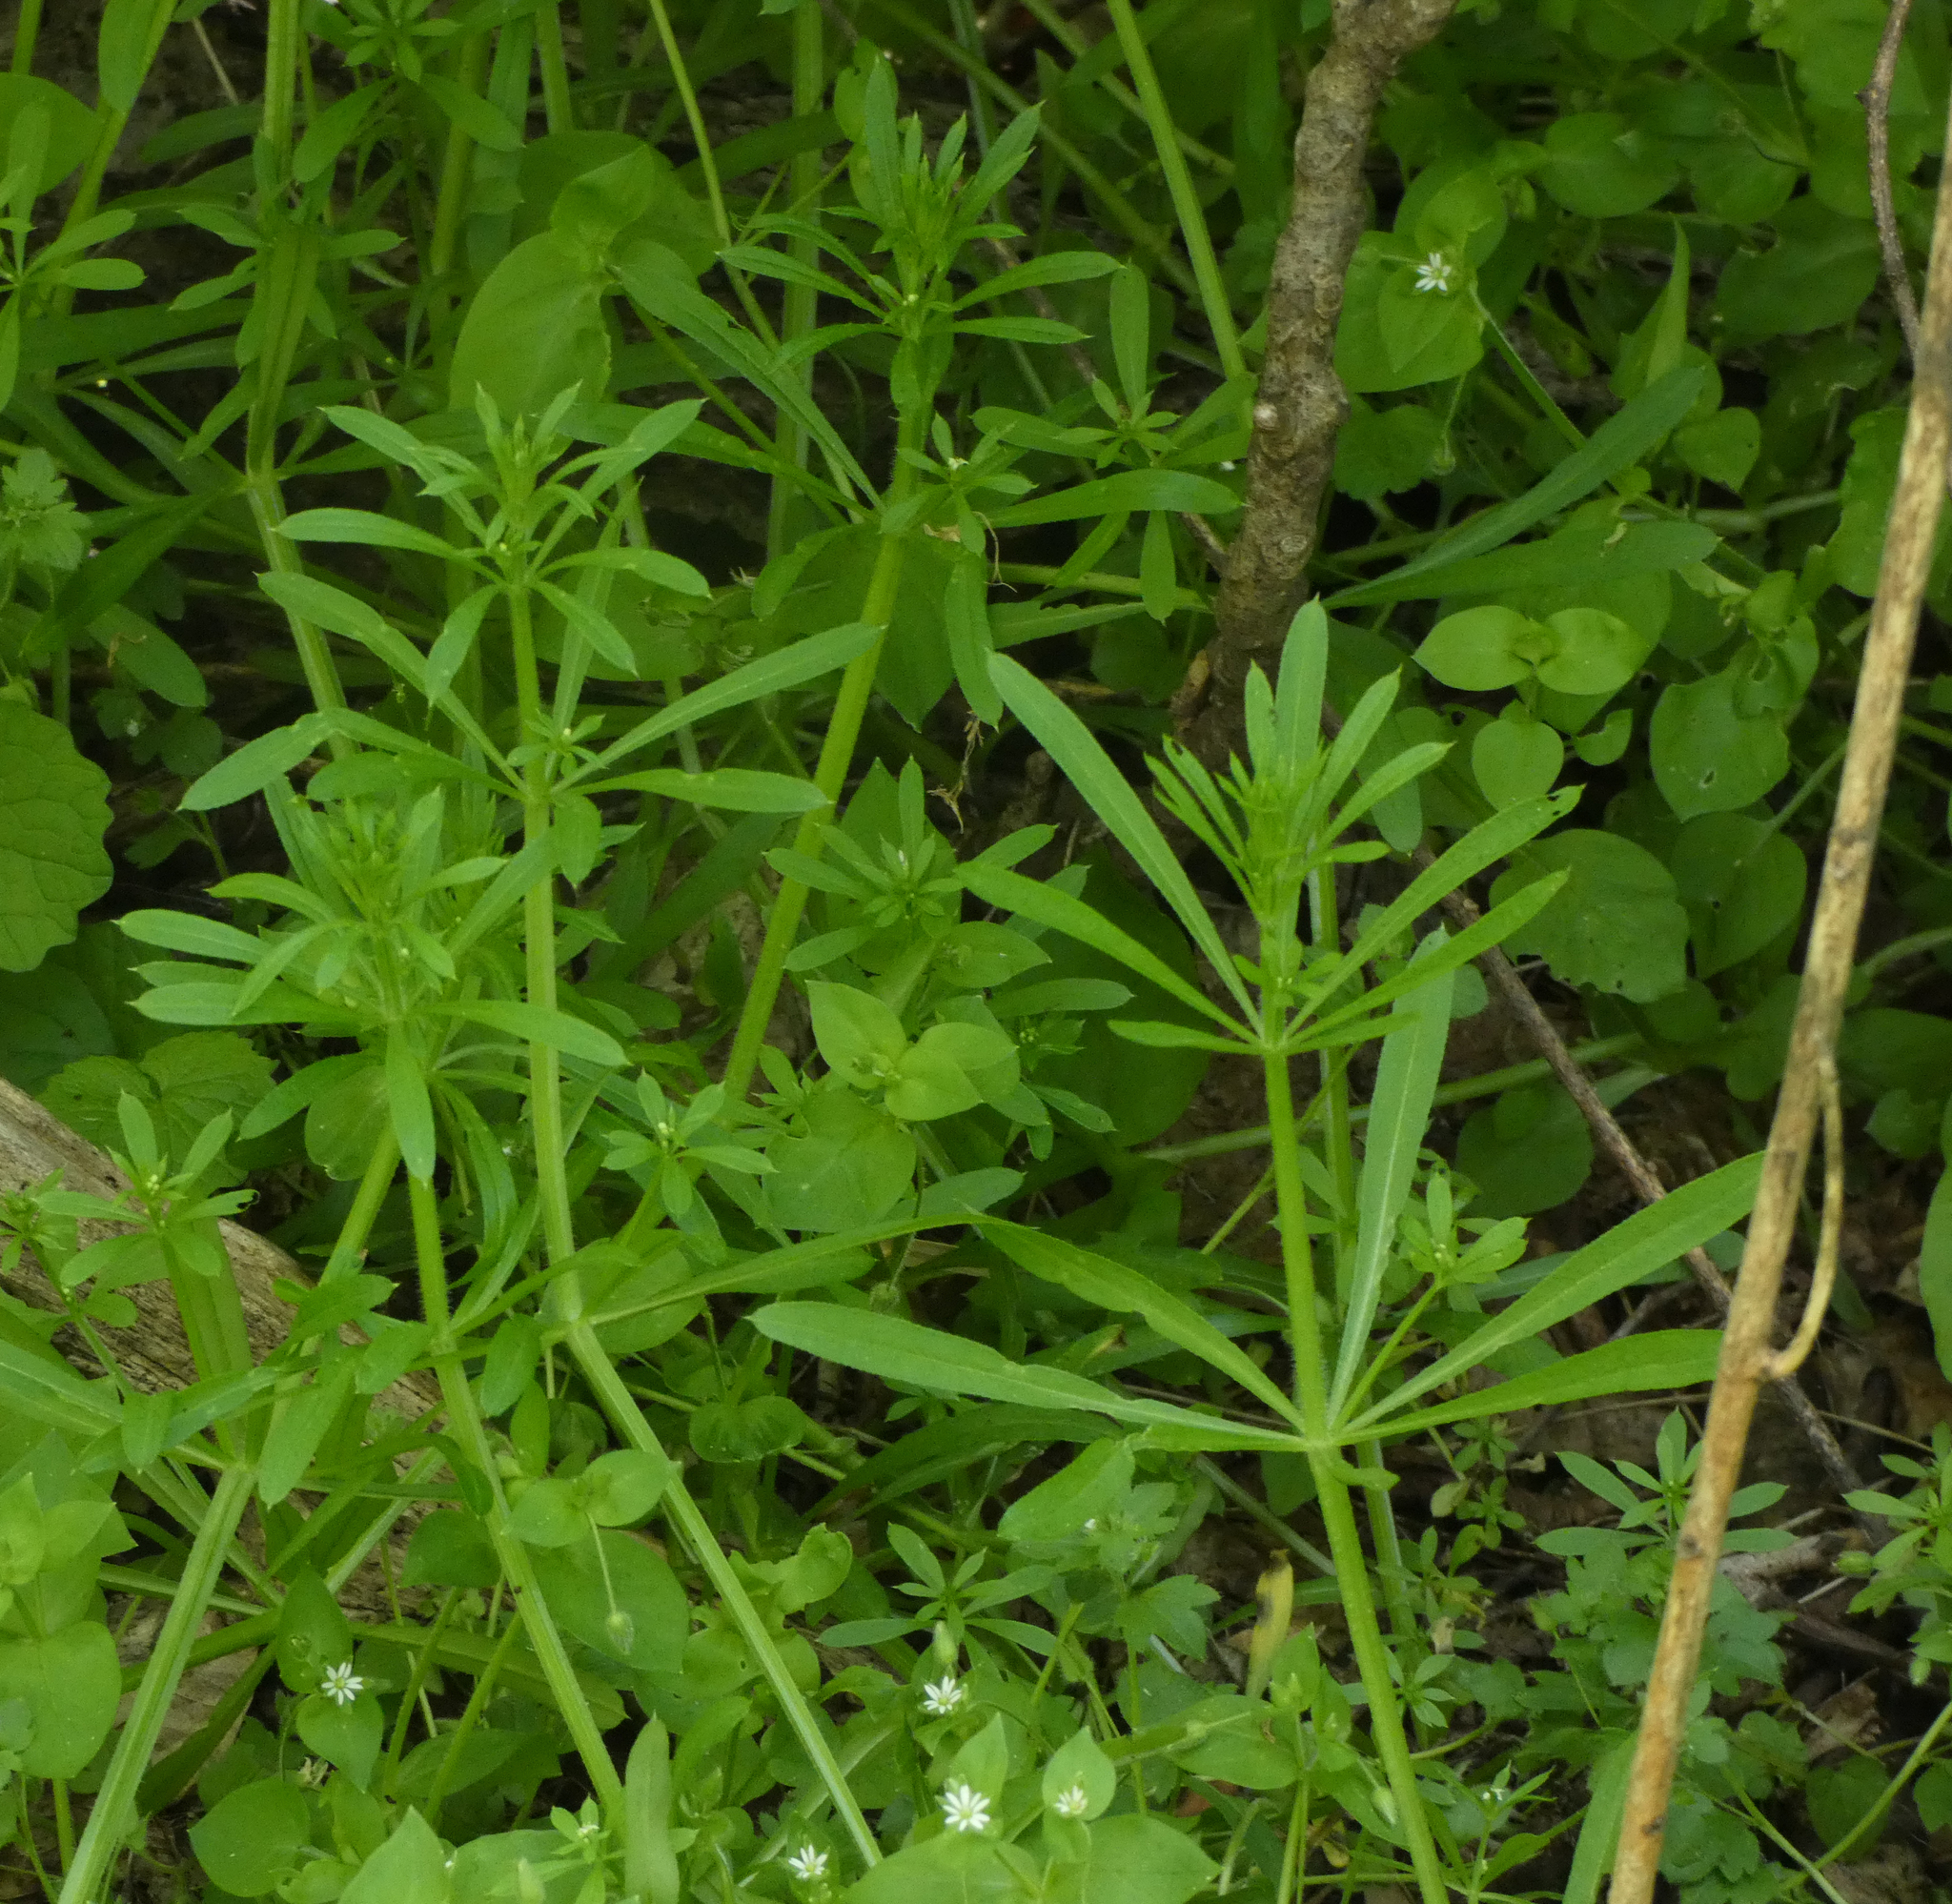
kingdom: Plantae
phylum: Tracheophyta
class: Magnoliopsida
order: Gentianales
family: Rubiaceae
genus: Galium
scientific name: Galium aparine
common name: Cleavers
